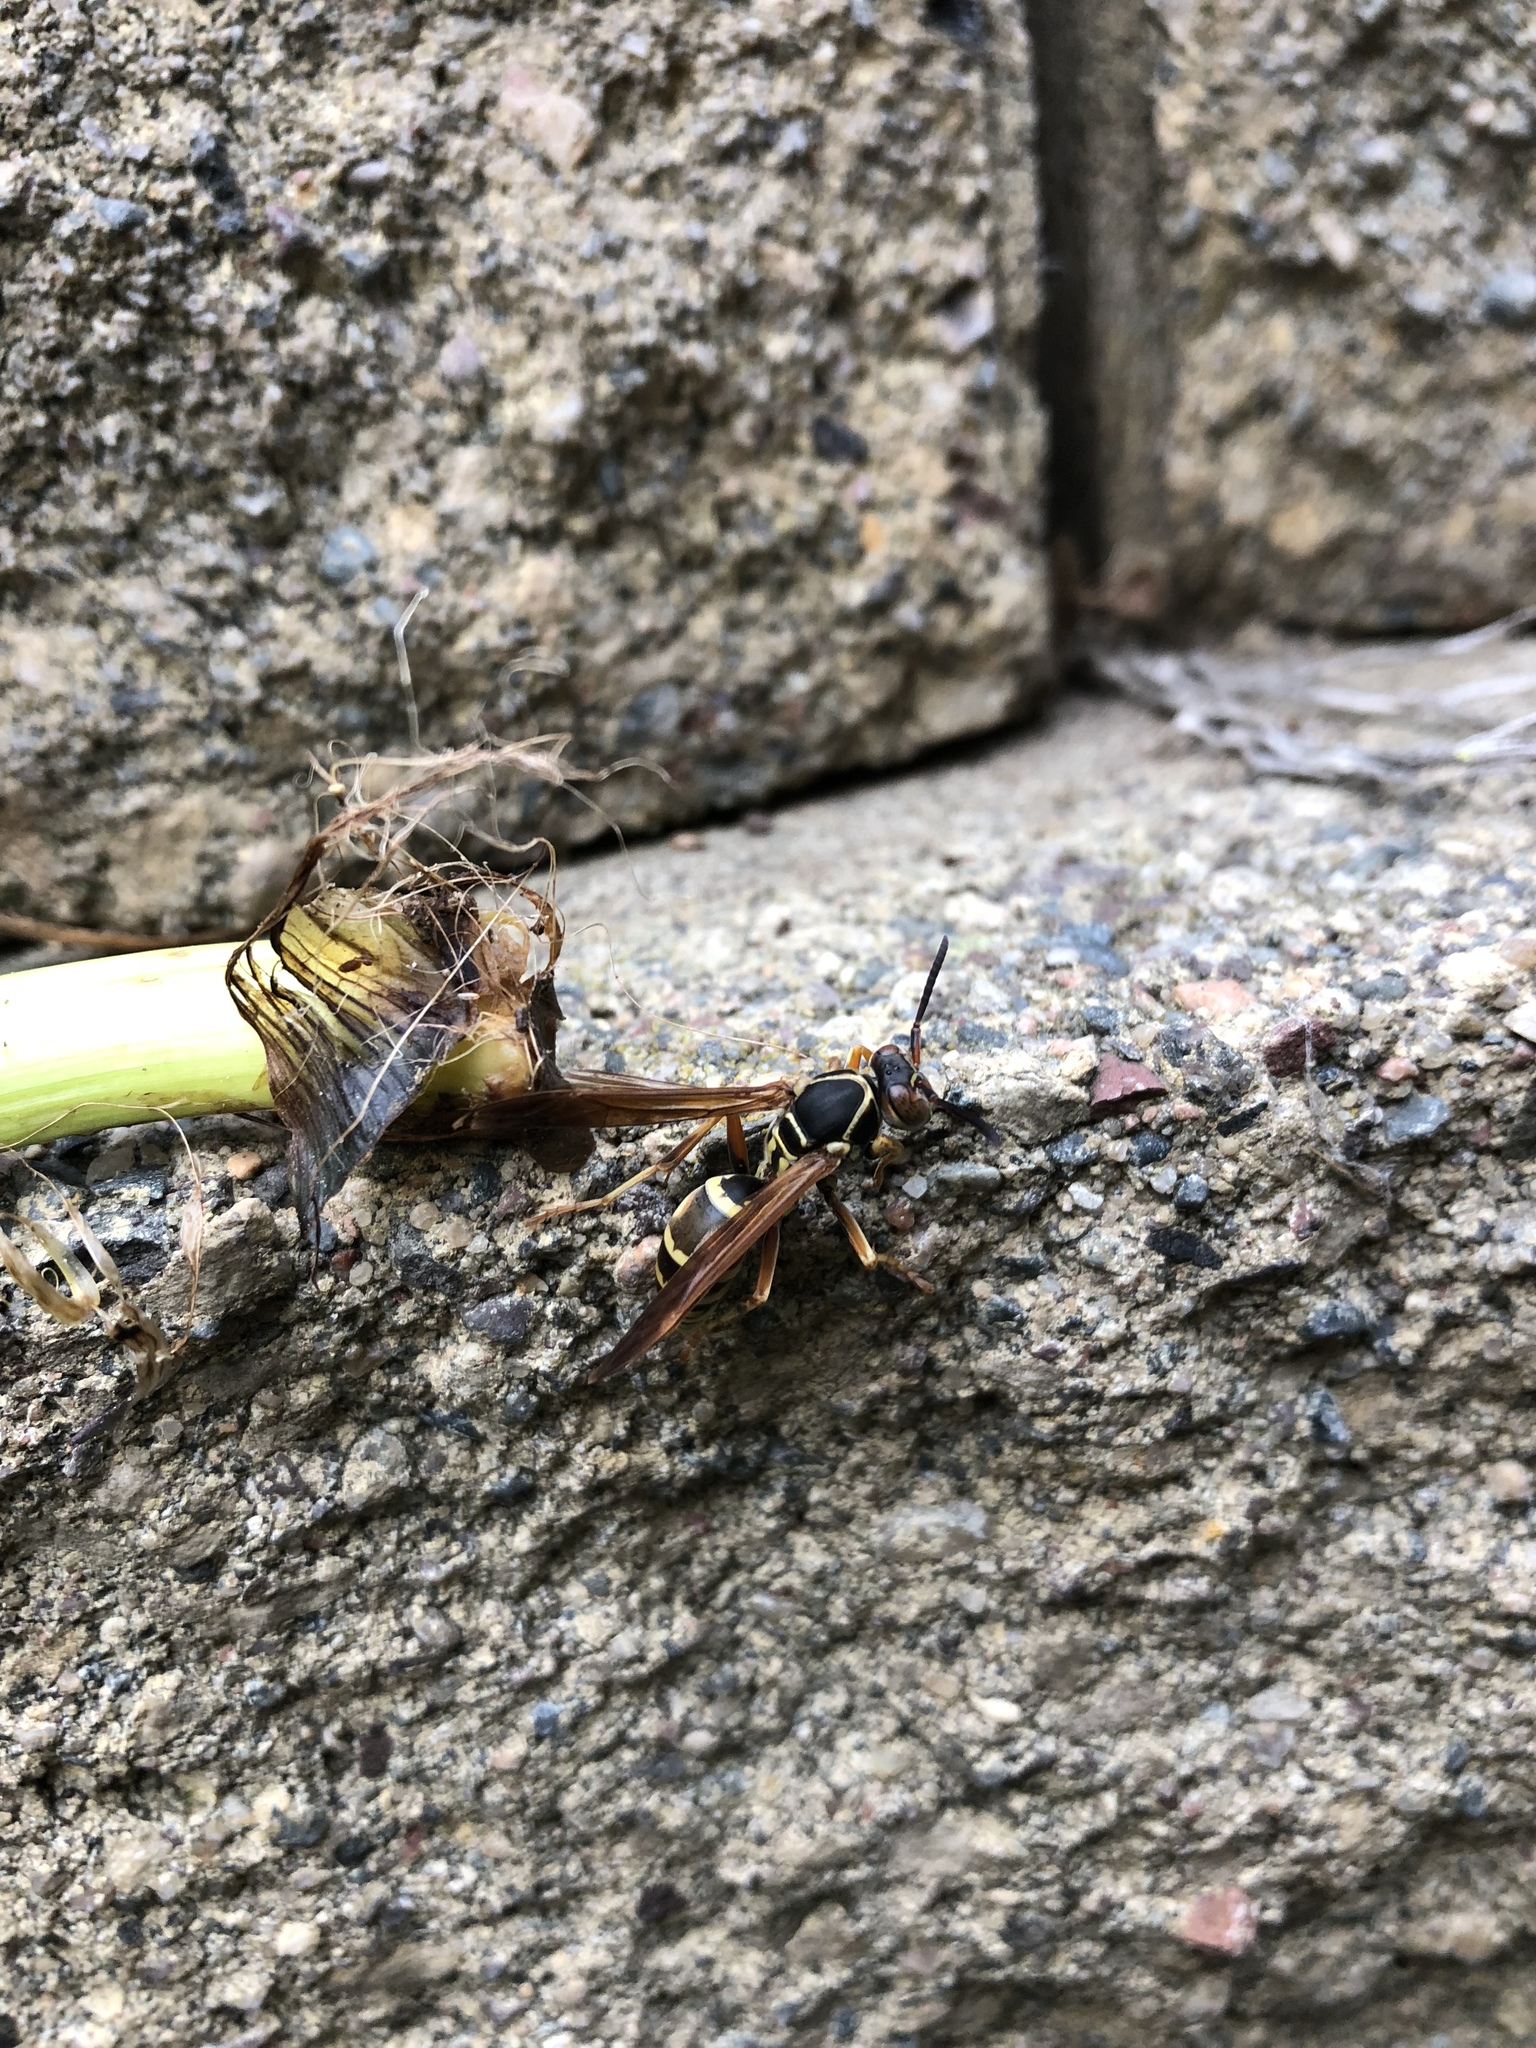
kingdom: Animalia
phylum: Arthropoda
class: Insecta
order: Hymenoptera
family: Eumenidae
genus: Polistes
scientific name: Polistes fuscatus
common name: Dark paper wasp
